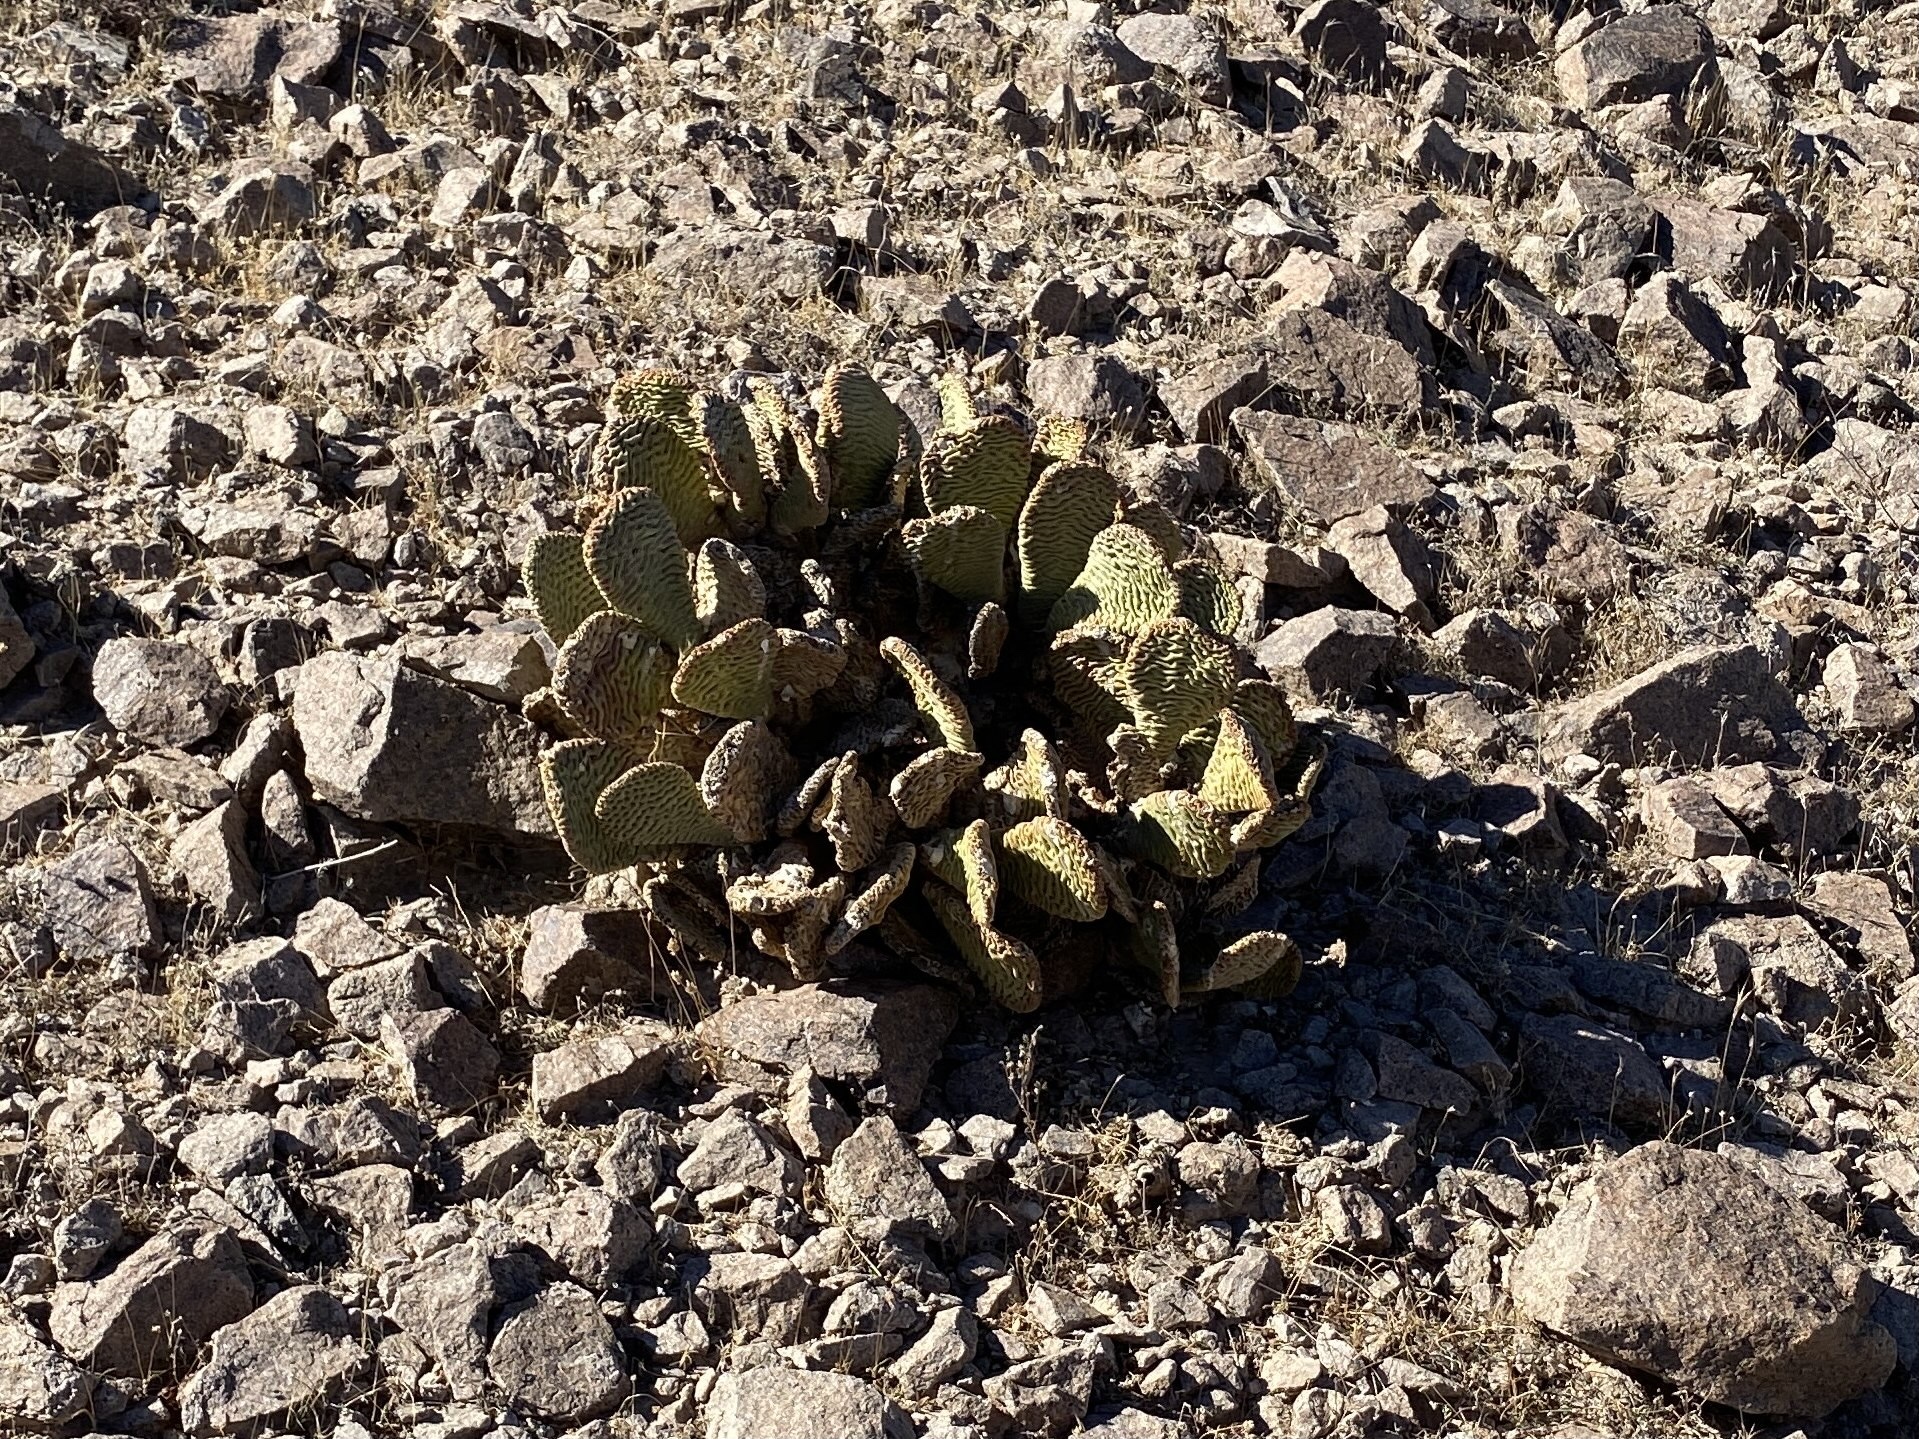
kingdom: Plantae
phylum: Tracheophyta
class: Magnoliopsida
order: Caryophyllales
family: Cactaceae
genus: Opuntia
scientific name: Opuntia basilaris
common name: Beavertail prickly-pear
